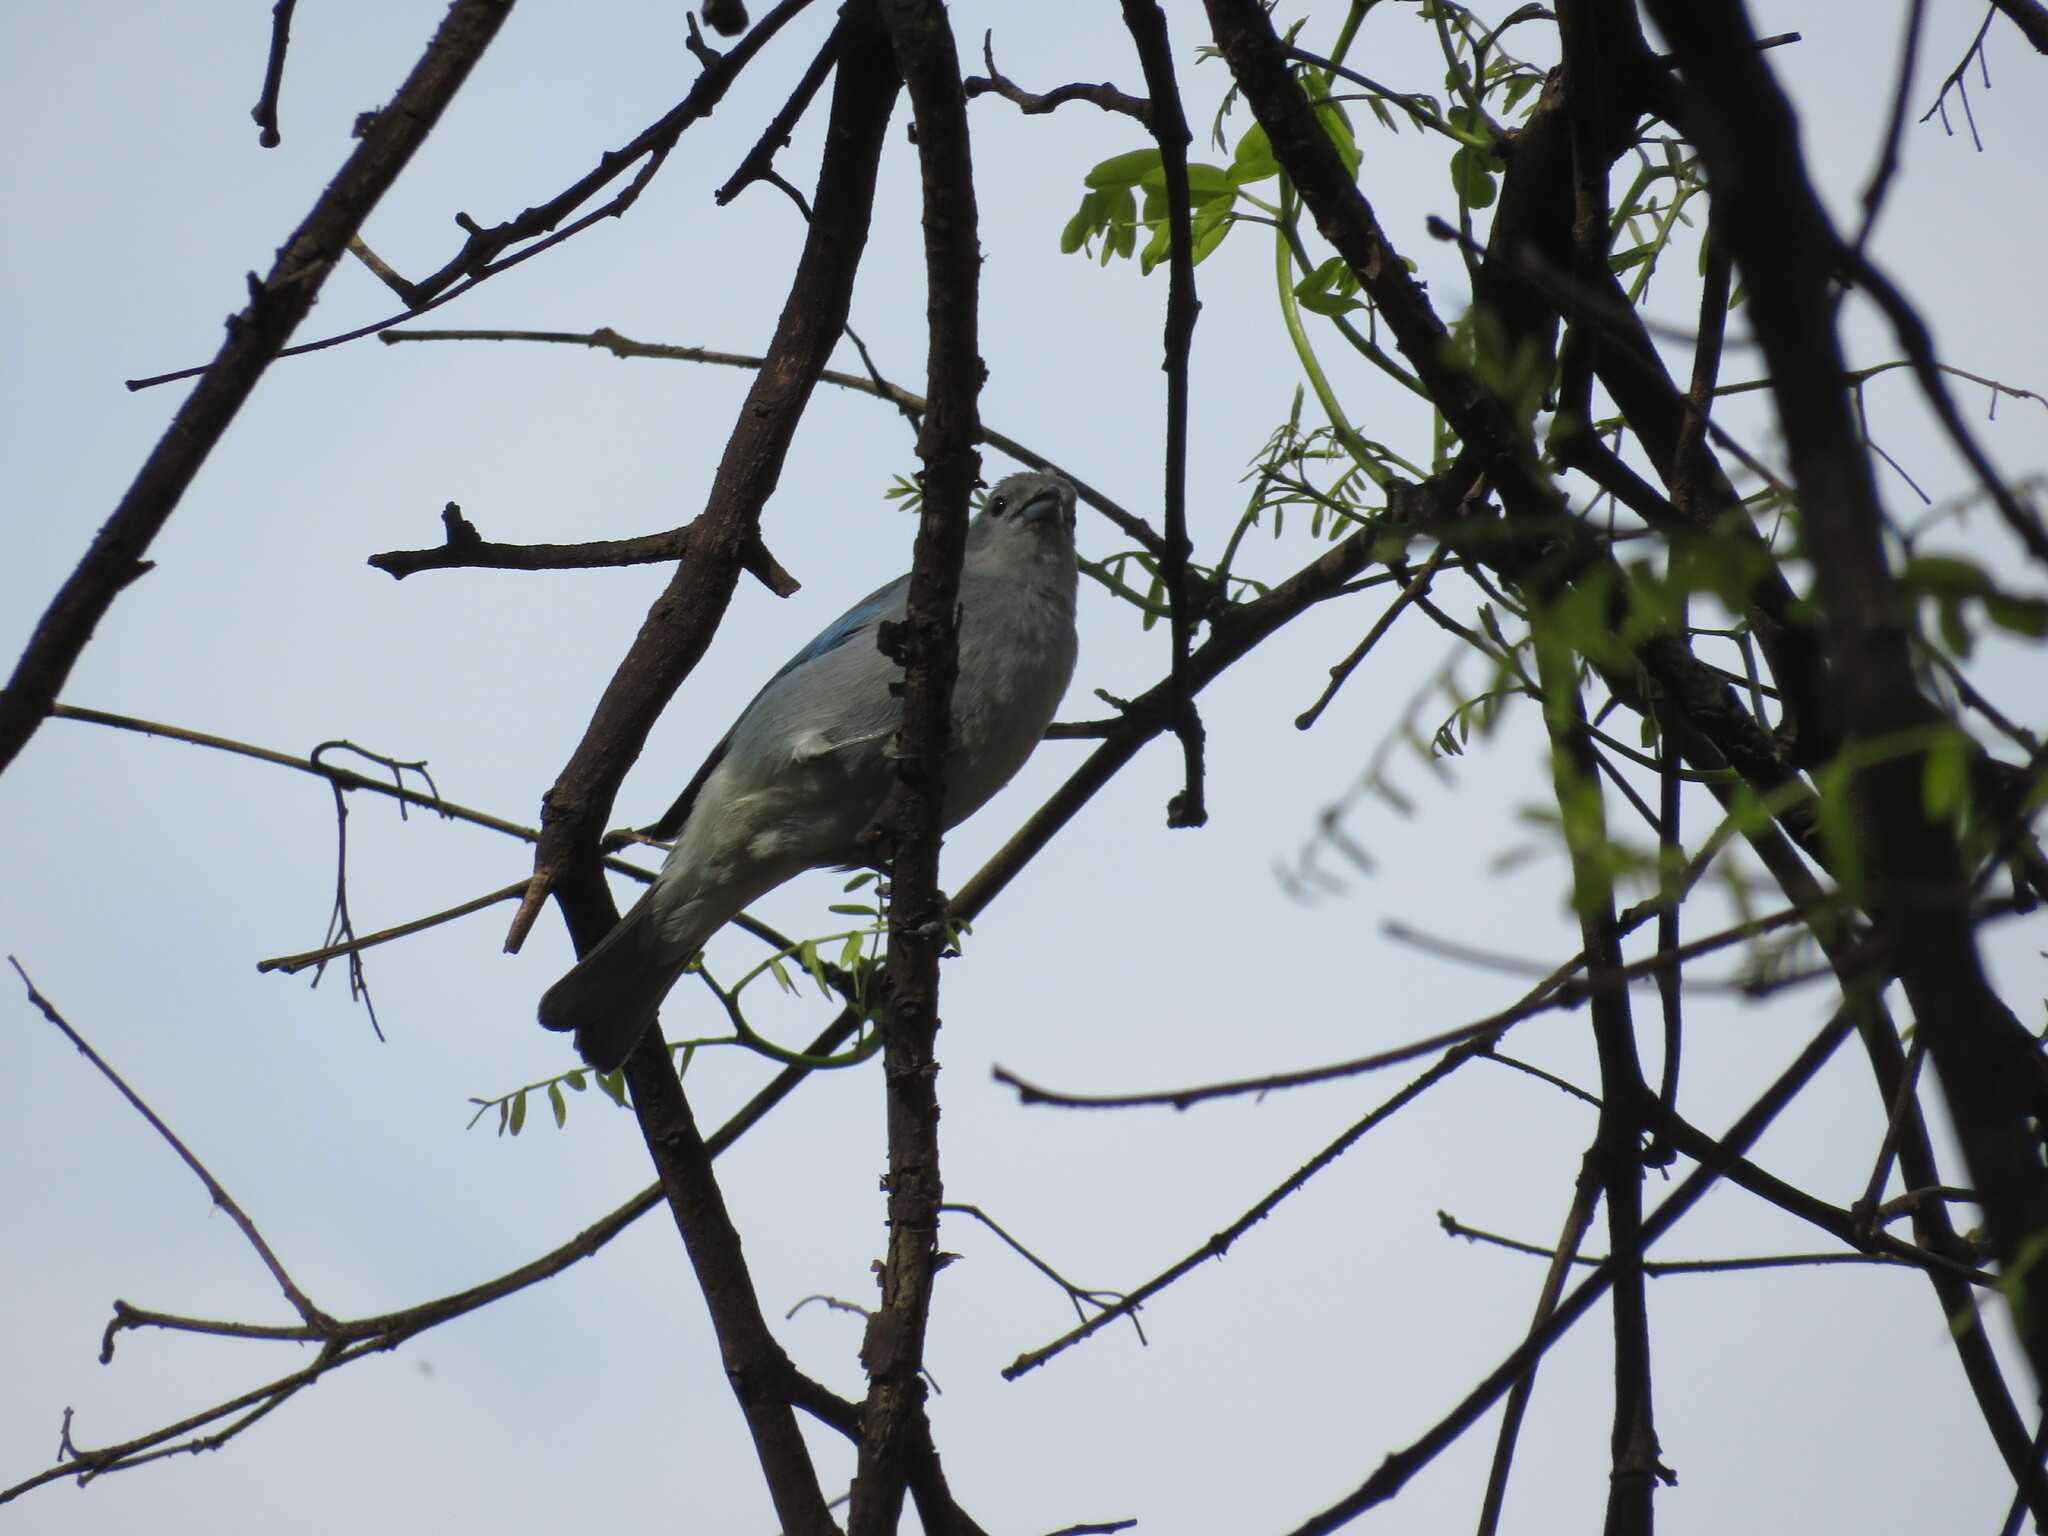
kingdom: Animalia
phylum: Chordata
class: Aves
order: Passeriformes
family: Thraupidae
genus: Thraupis
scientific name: Thraupis sayaca
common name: Sayaca tanager
